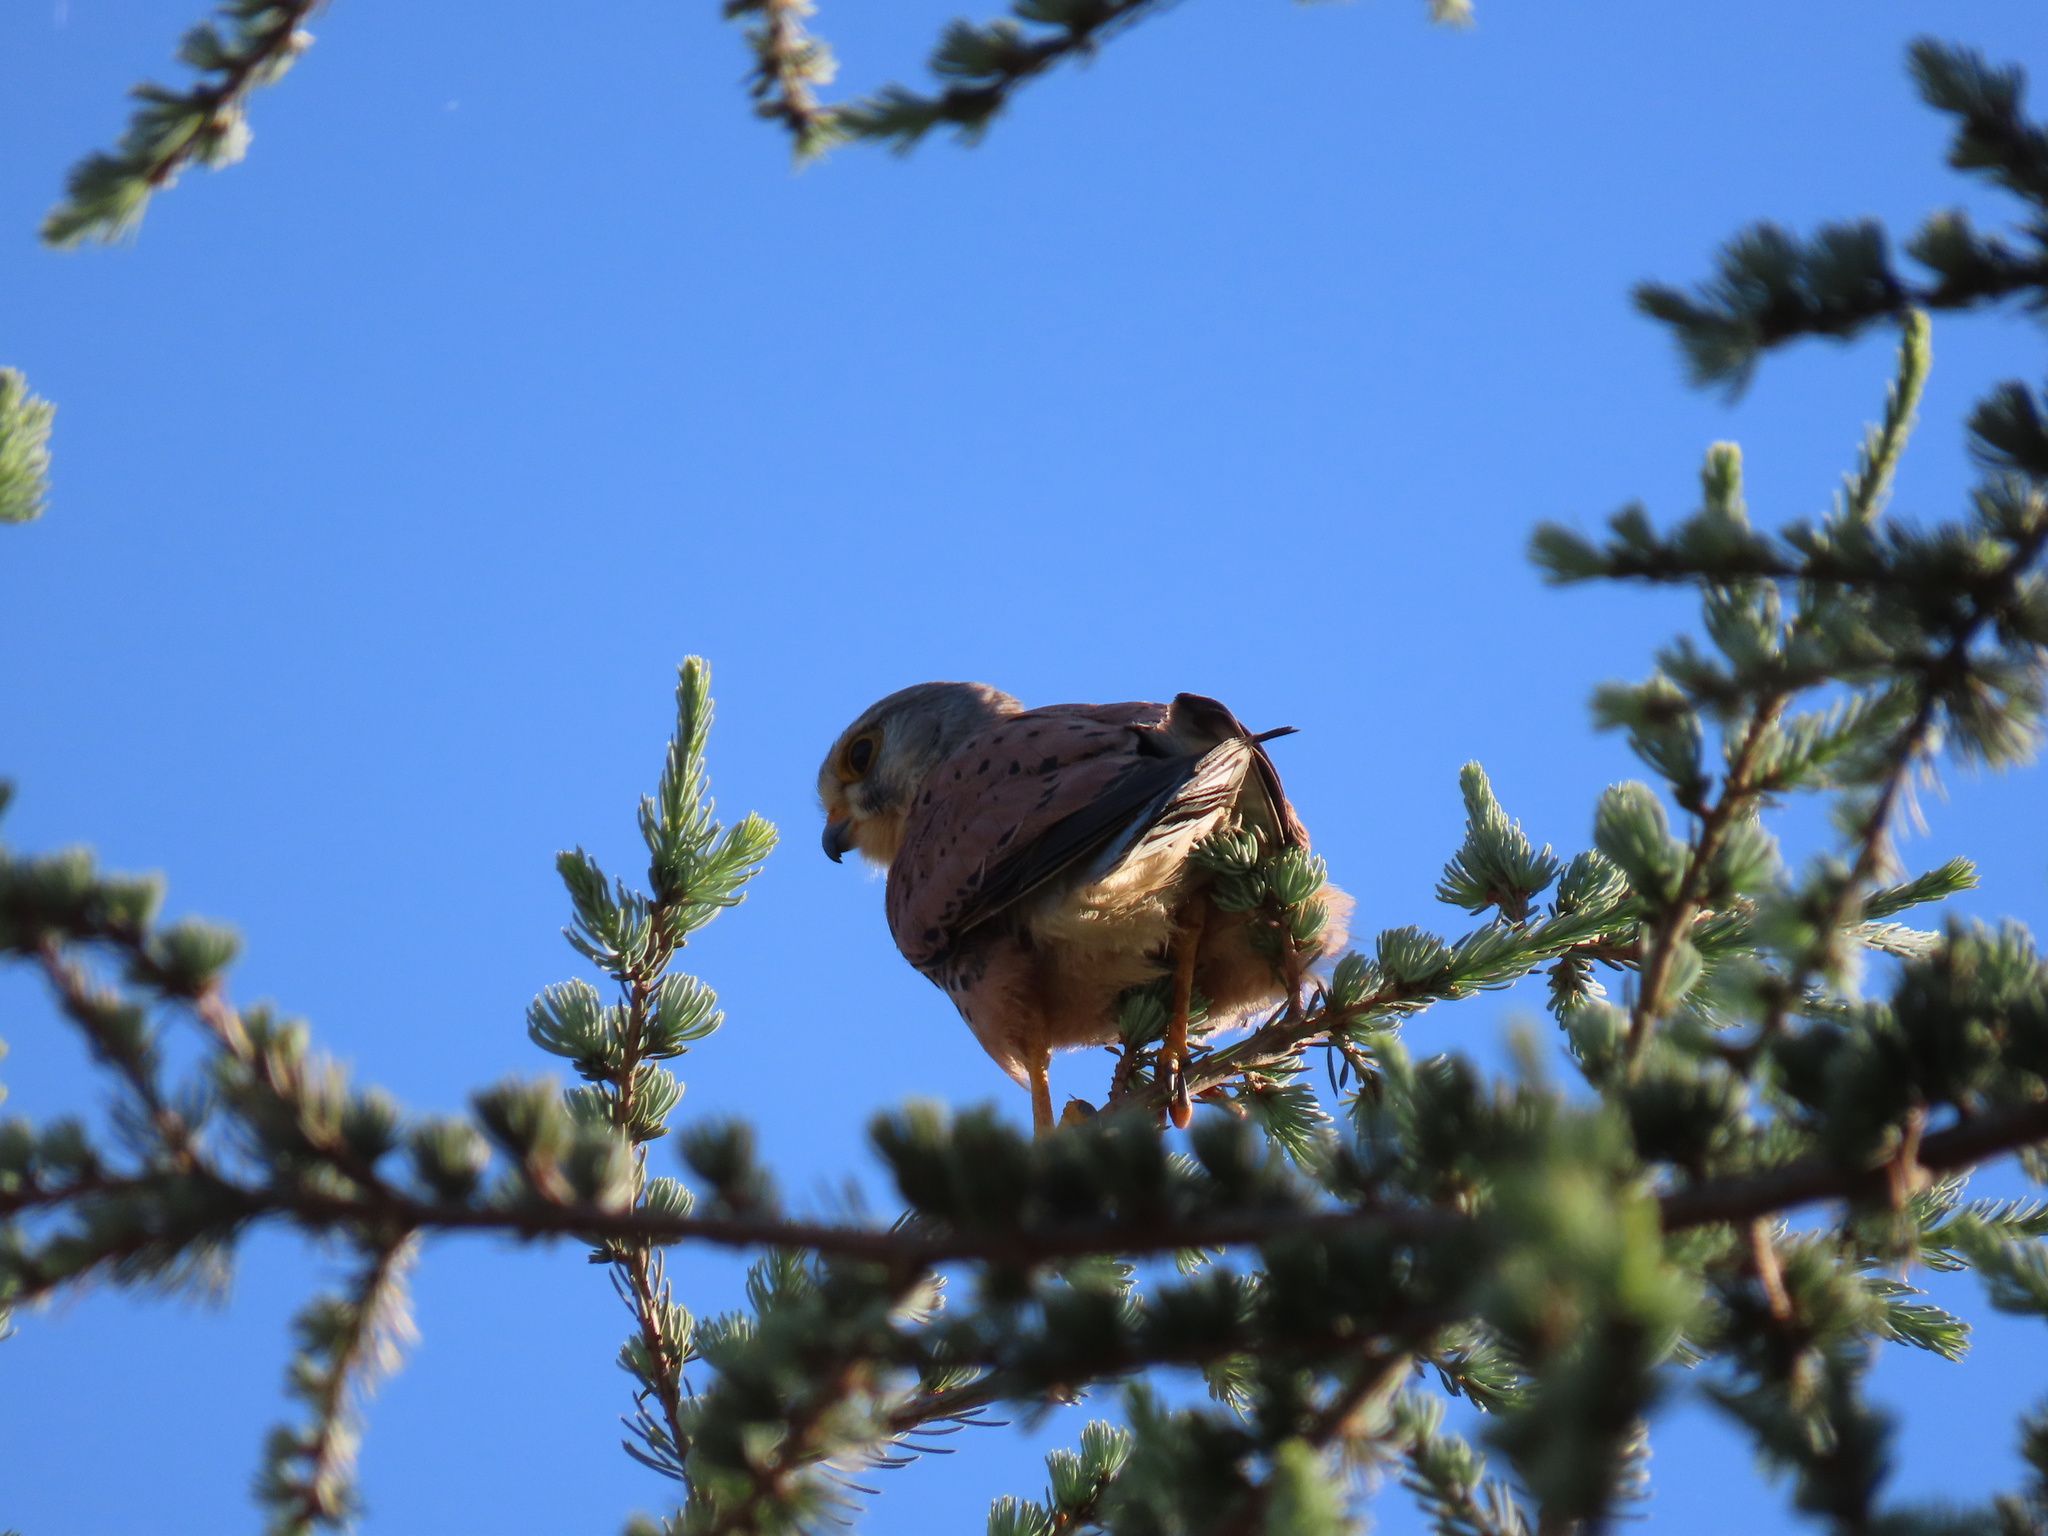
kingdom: Animalia
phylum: Chordata
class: Aves
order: Falconiformes
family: Falconidae
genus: Falco
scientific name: Falco tinnunculus
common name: Common kestrel
